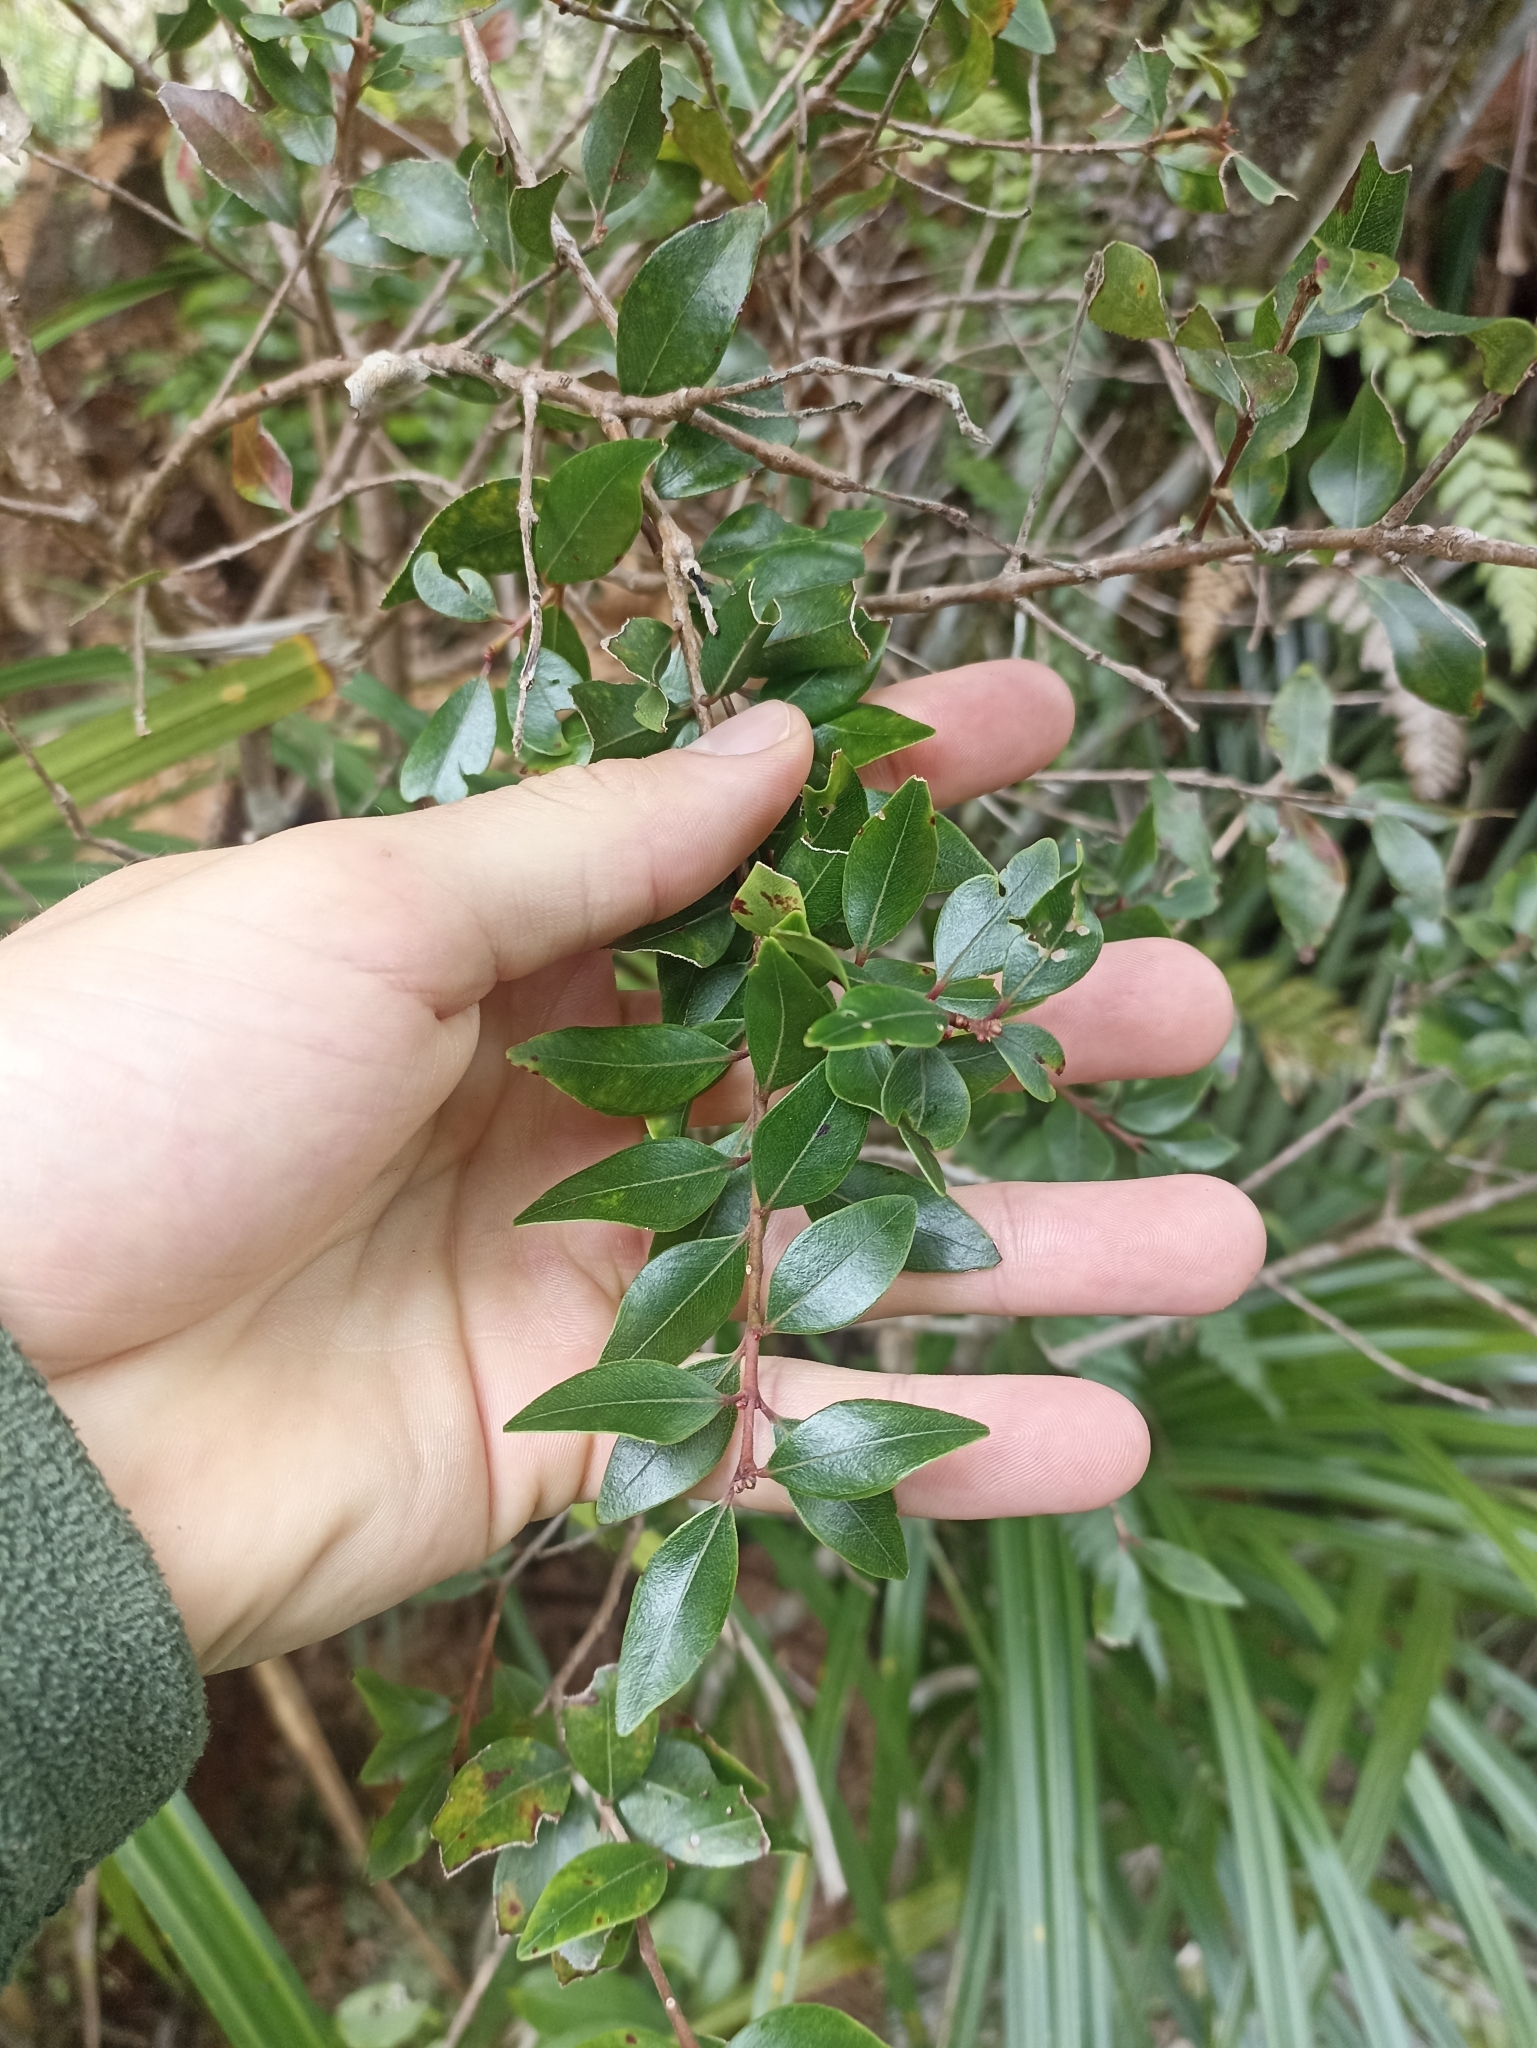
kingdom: Plantae
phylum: Tracheophyta
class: Magnoliopsida
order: Myrtales
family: Myrtaceae
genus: Metrosideros
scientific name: Metrosideros robusta
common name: Northern rata
